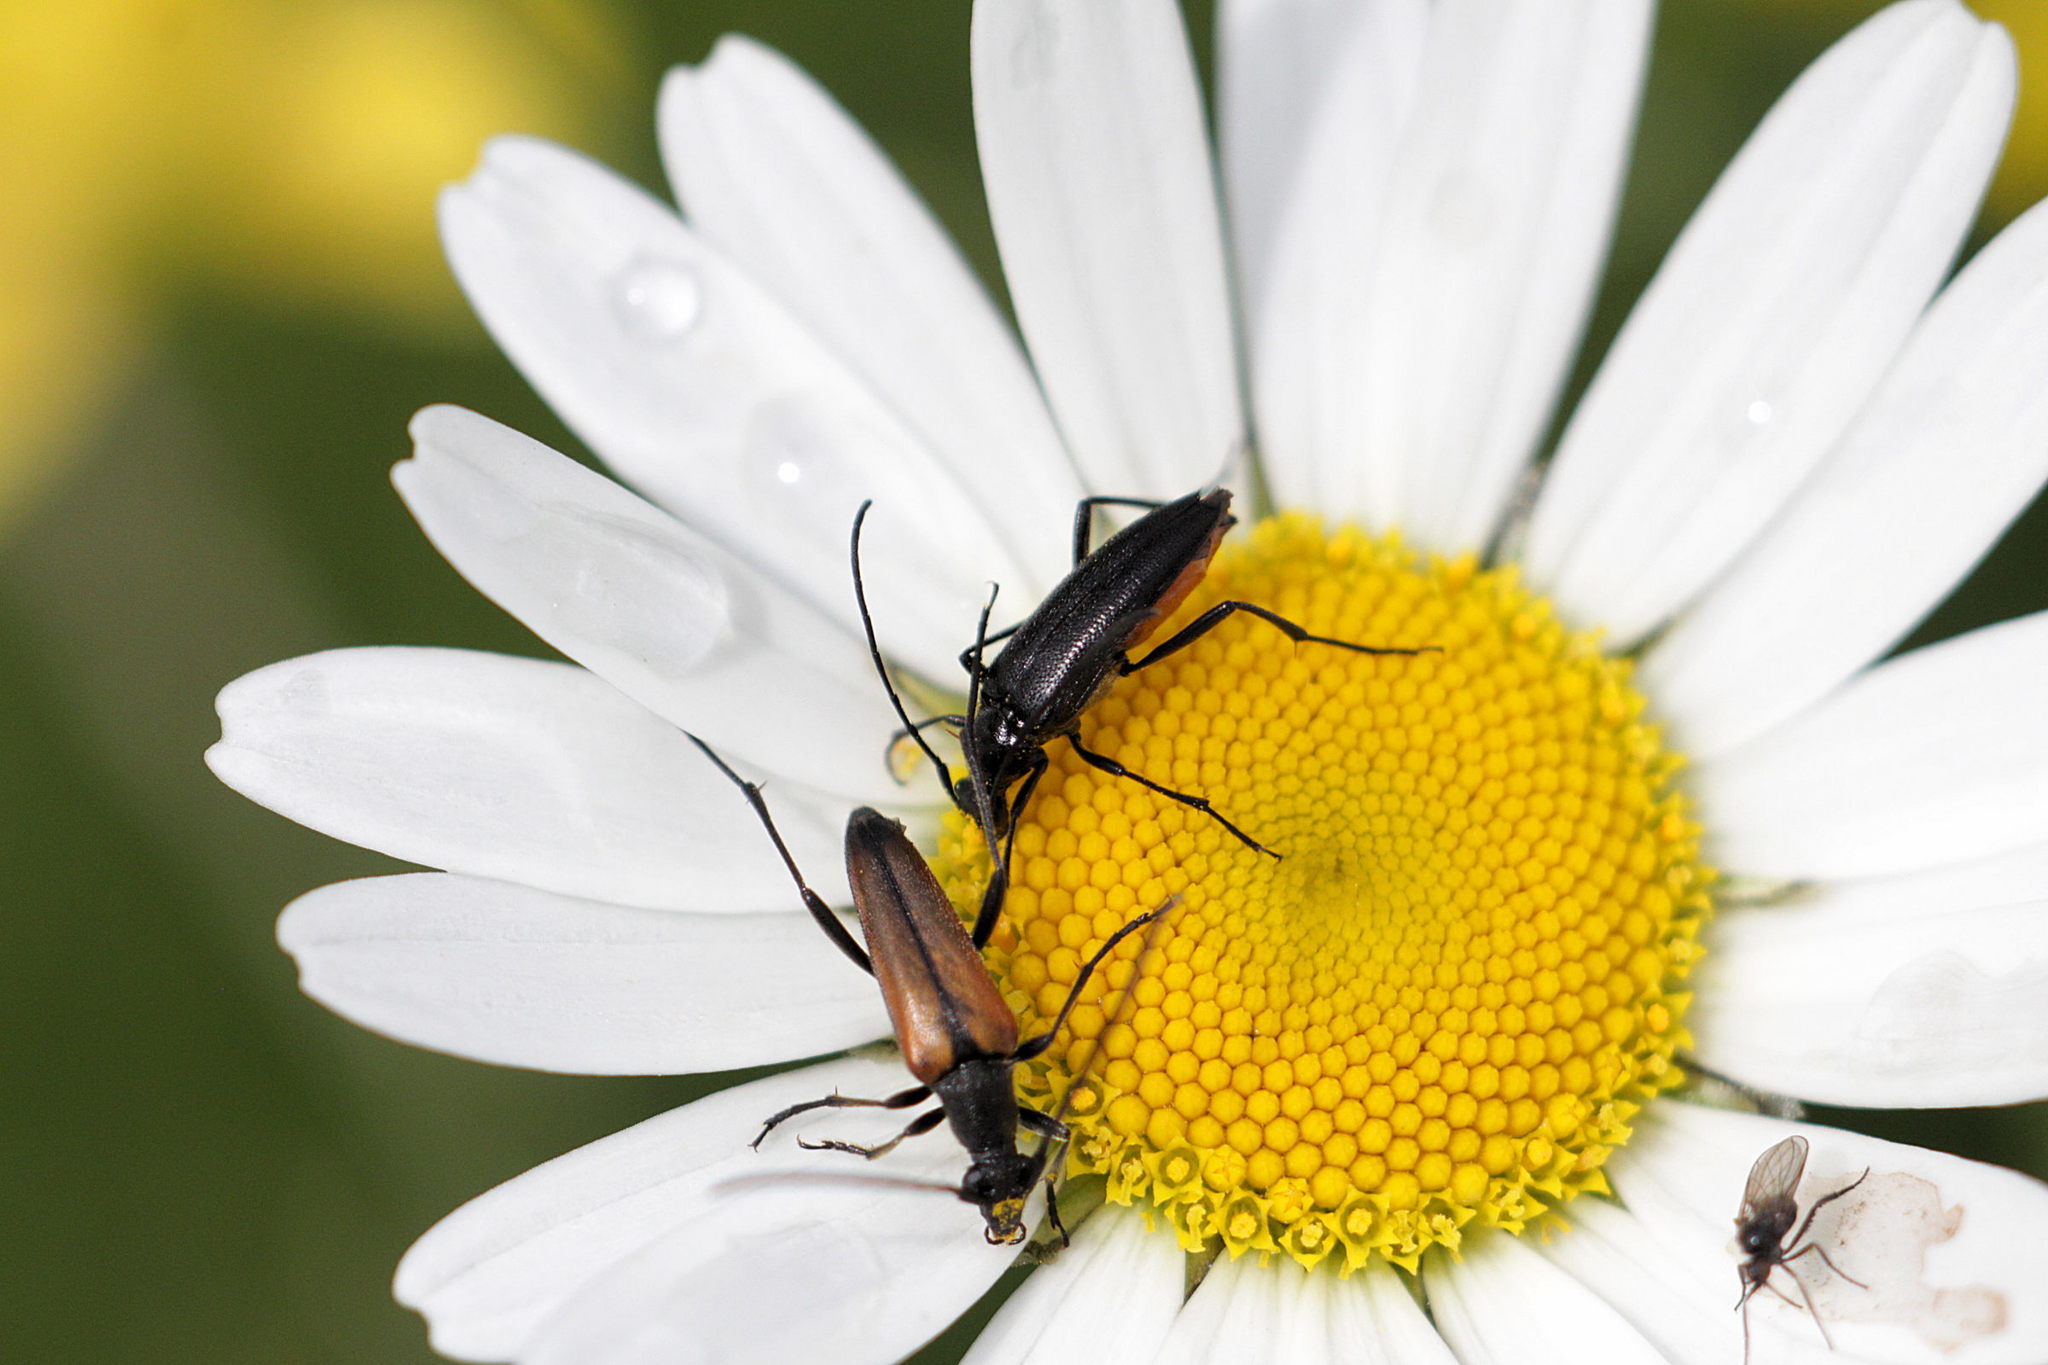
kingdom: Animalia
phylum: Arthropoda
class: Insecta
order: Coleoptera
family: Cerambycidae
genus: Stenurella
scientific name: Stenurella nigra
